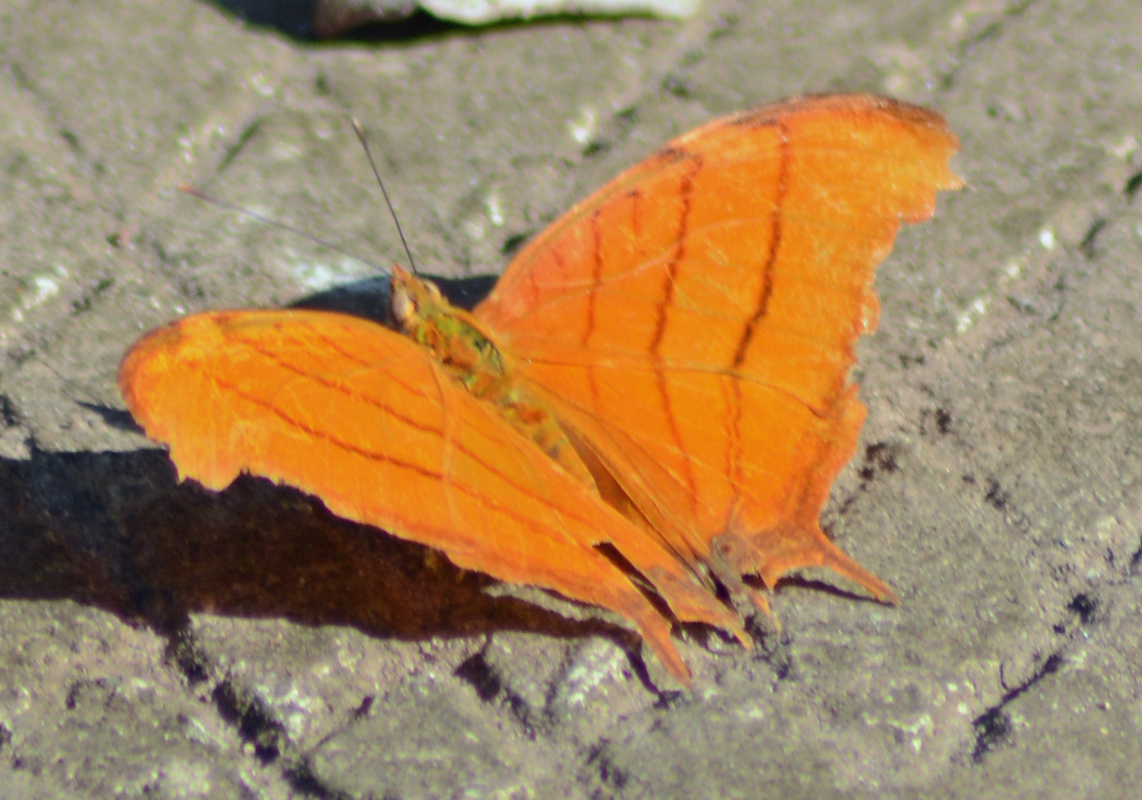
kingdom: Animalia
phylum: Arthropoda
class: Insecta
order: Lepidoptera
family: Nymphalidae
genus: Marpesia
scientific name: Marpesia petreus
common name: Red dagger wing
